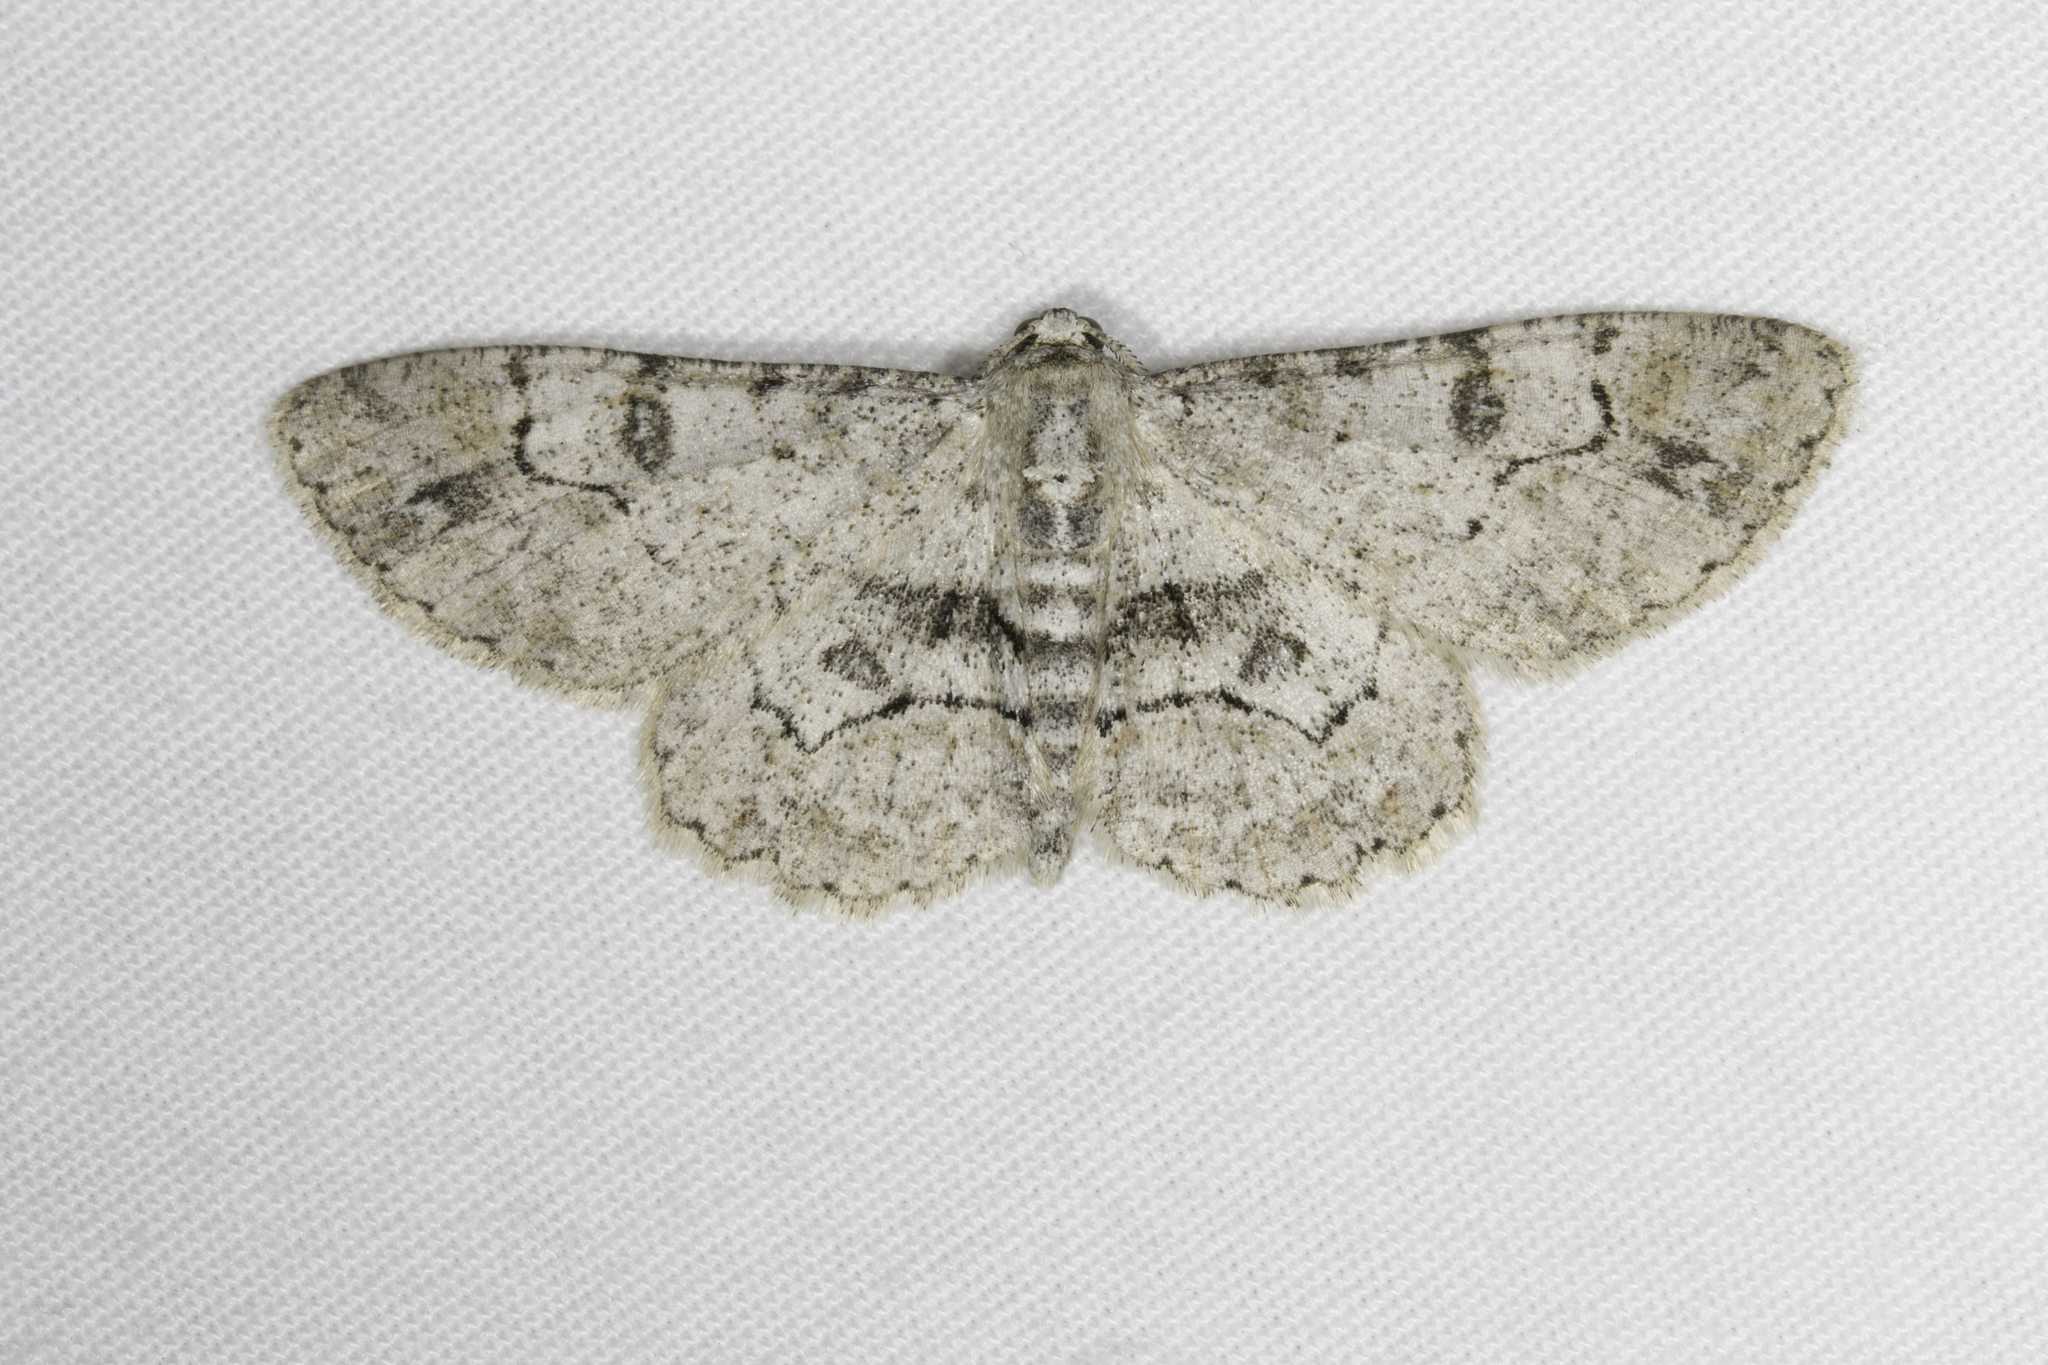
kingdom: Animalia
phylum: Arthropoda
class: Insecta
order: Lepidoptera
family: Geometridae
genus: Iridopsis
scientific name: Iridopsis larvaria
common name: Bent-line gray
